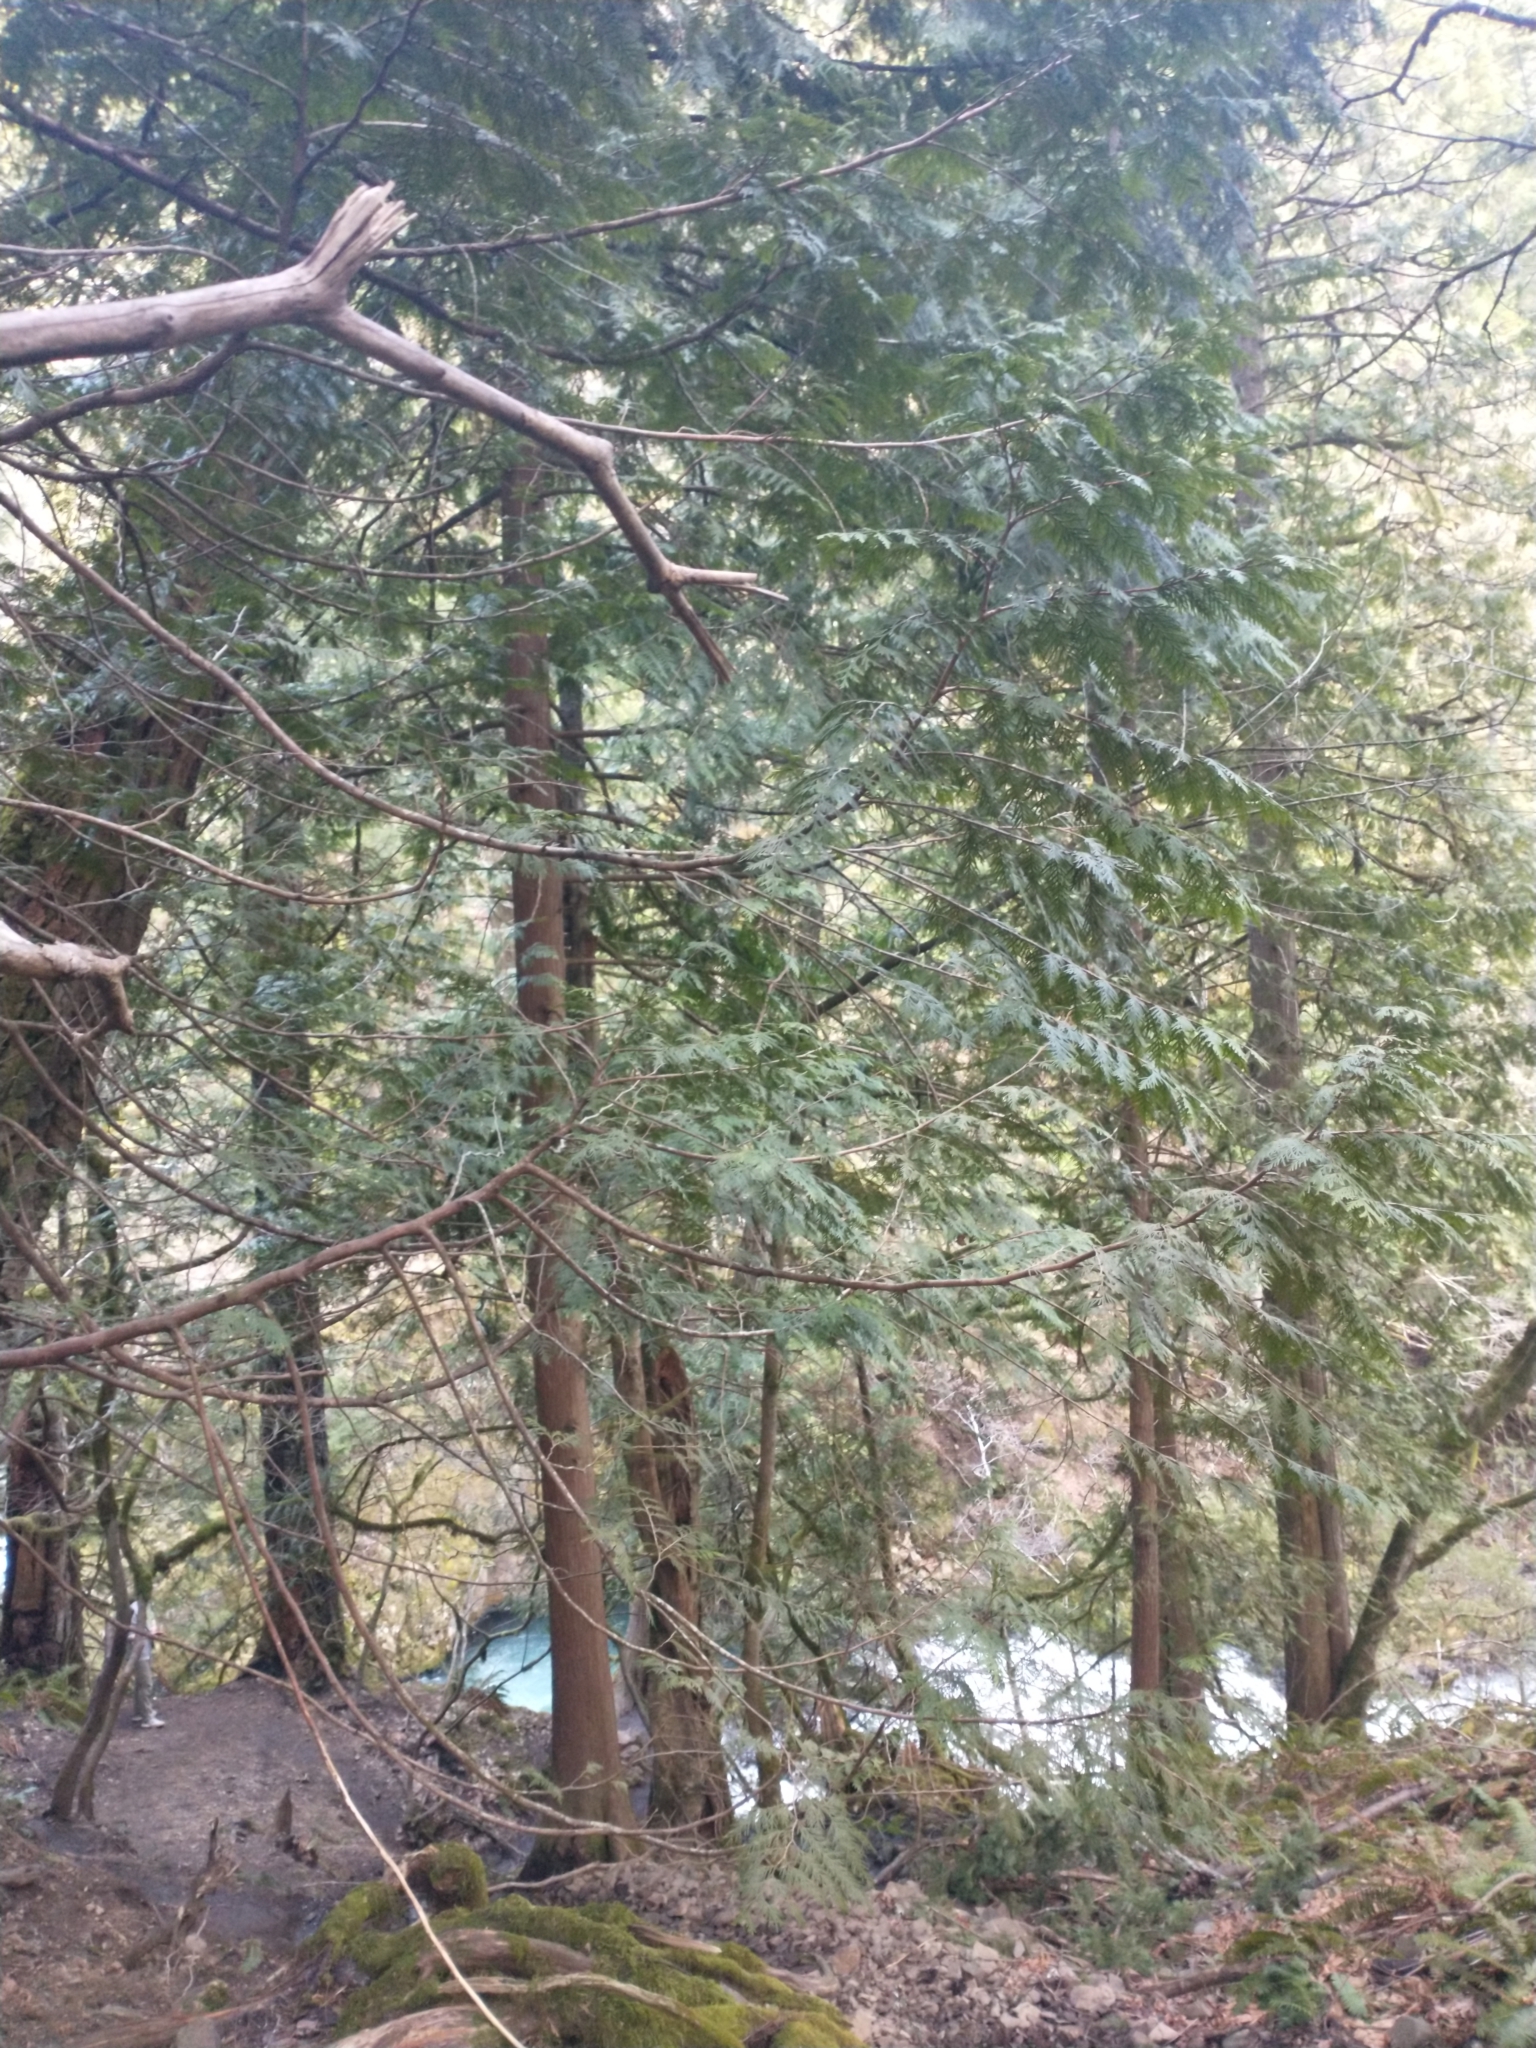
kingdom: Plantae
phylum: Tracheophyta
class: Pinopsida
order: Pinales
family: Cupressaceae
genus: Thuja
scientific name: Thuja plicata
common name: Western red-cedar
